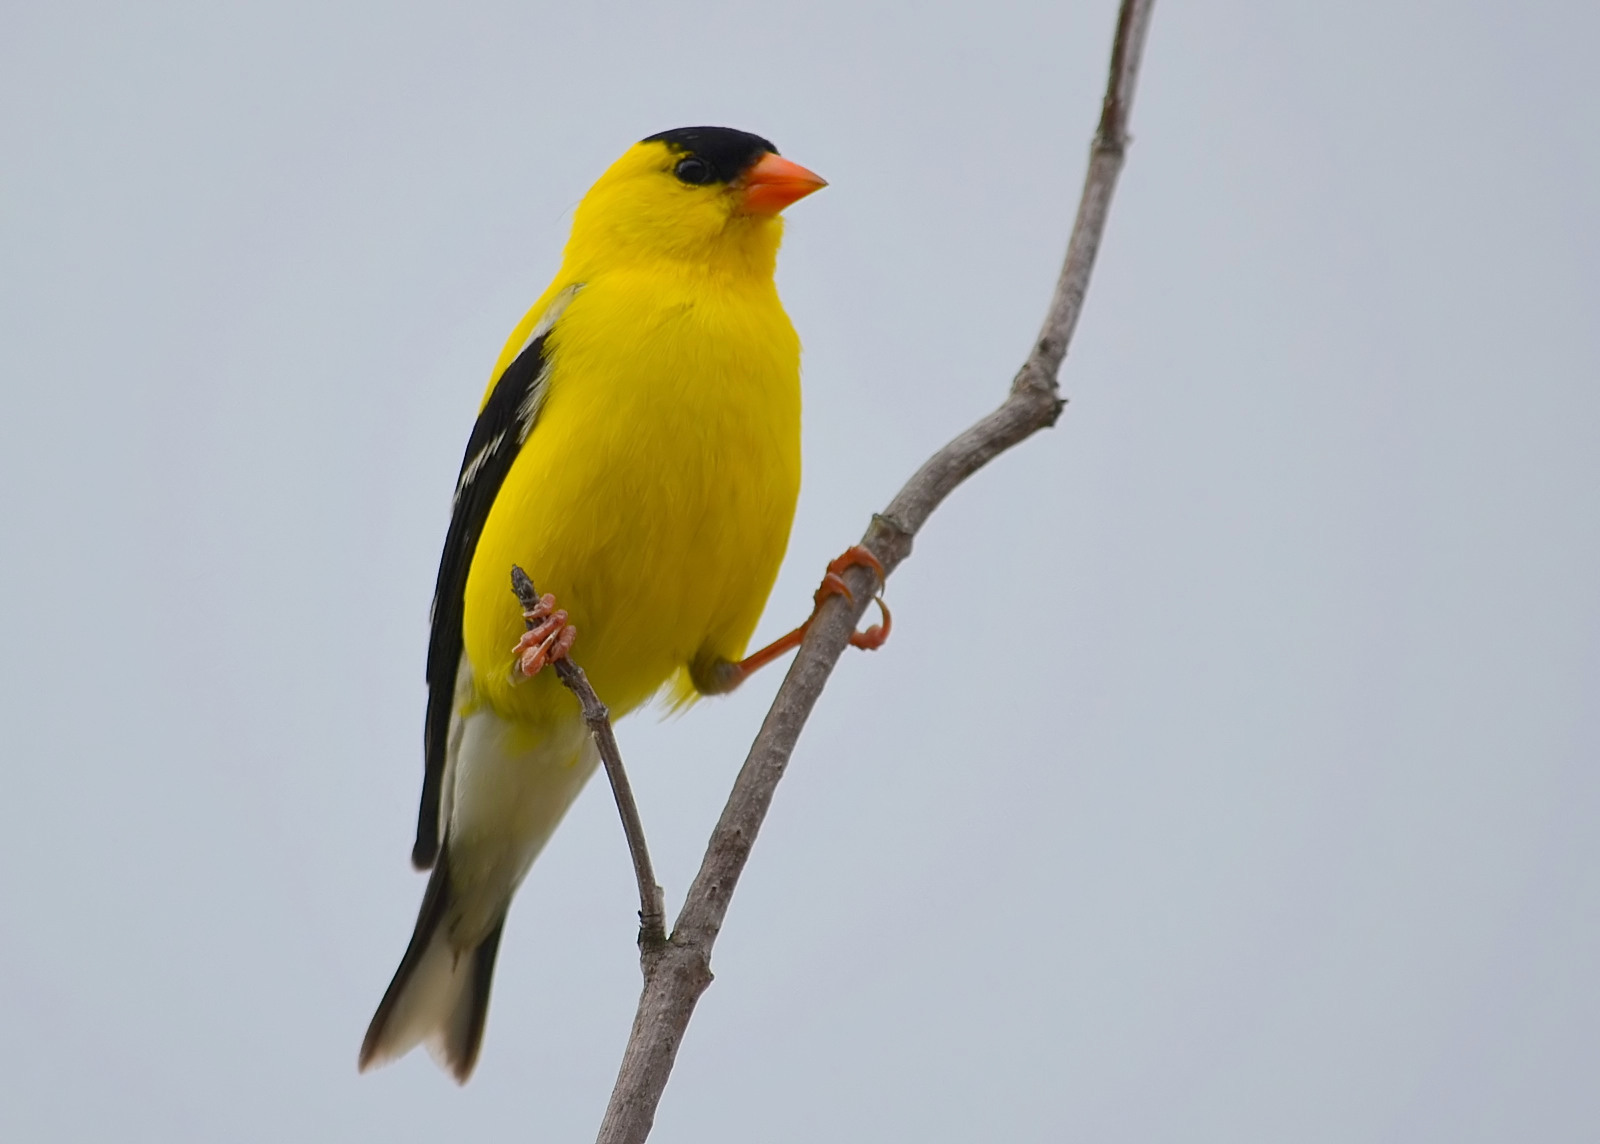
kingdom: Animalia
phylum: Chordata
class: Aves
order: Passeriformes
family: Fringillidae
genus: Spinus
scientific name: Spinus tristis
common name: American goldfinch
